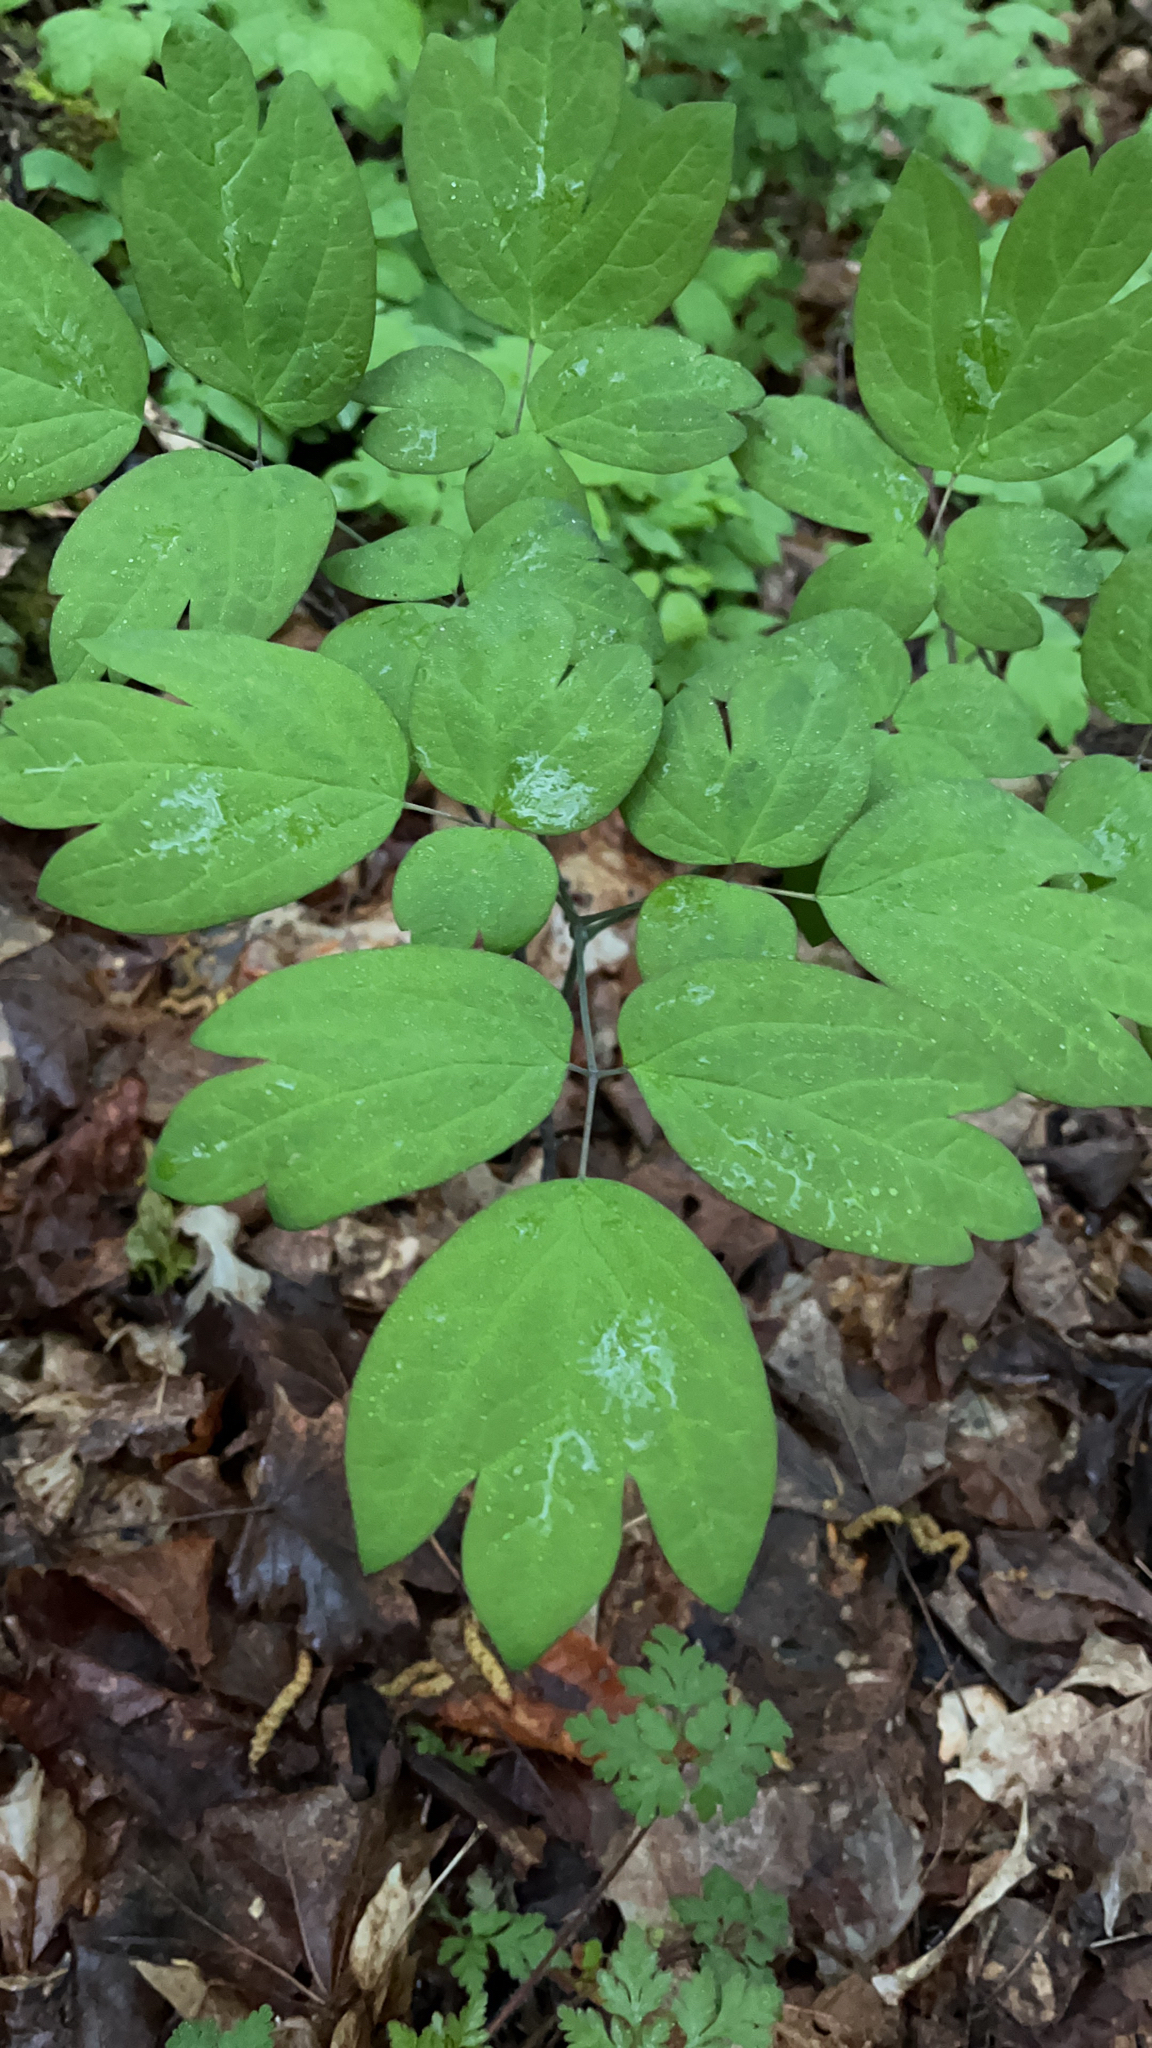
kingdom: Plantae
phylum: Tracheophyta
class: Magnoliopsida
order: Ranunculales
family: Berberidaceae
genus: Caulophyllum
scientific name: Caulophyllum thalictroides
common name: Blue cohosh
